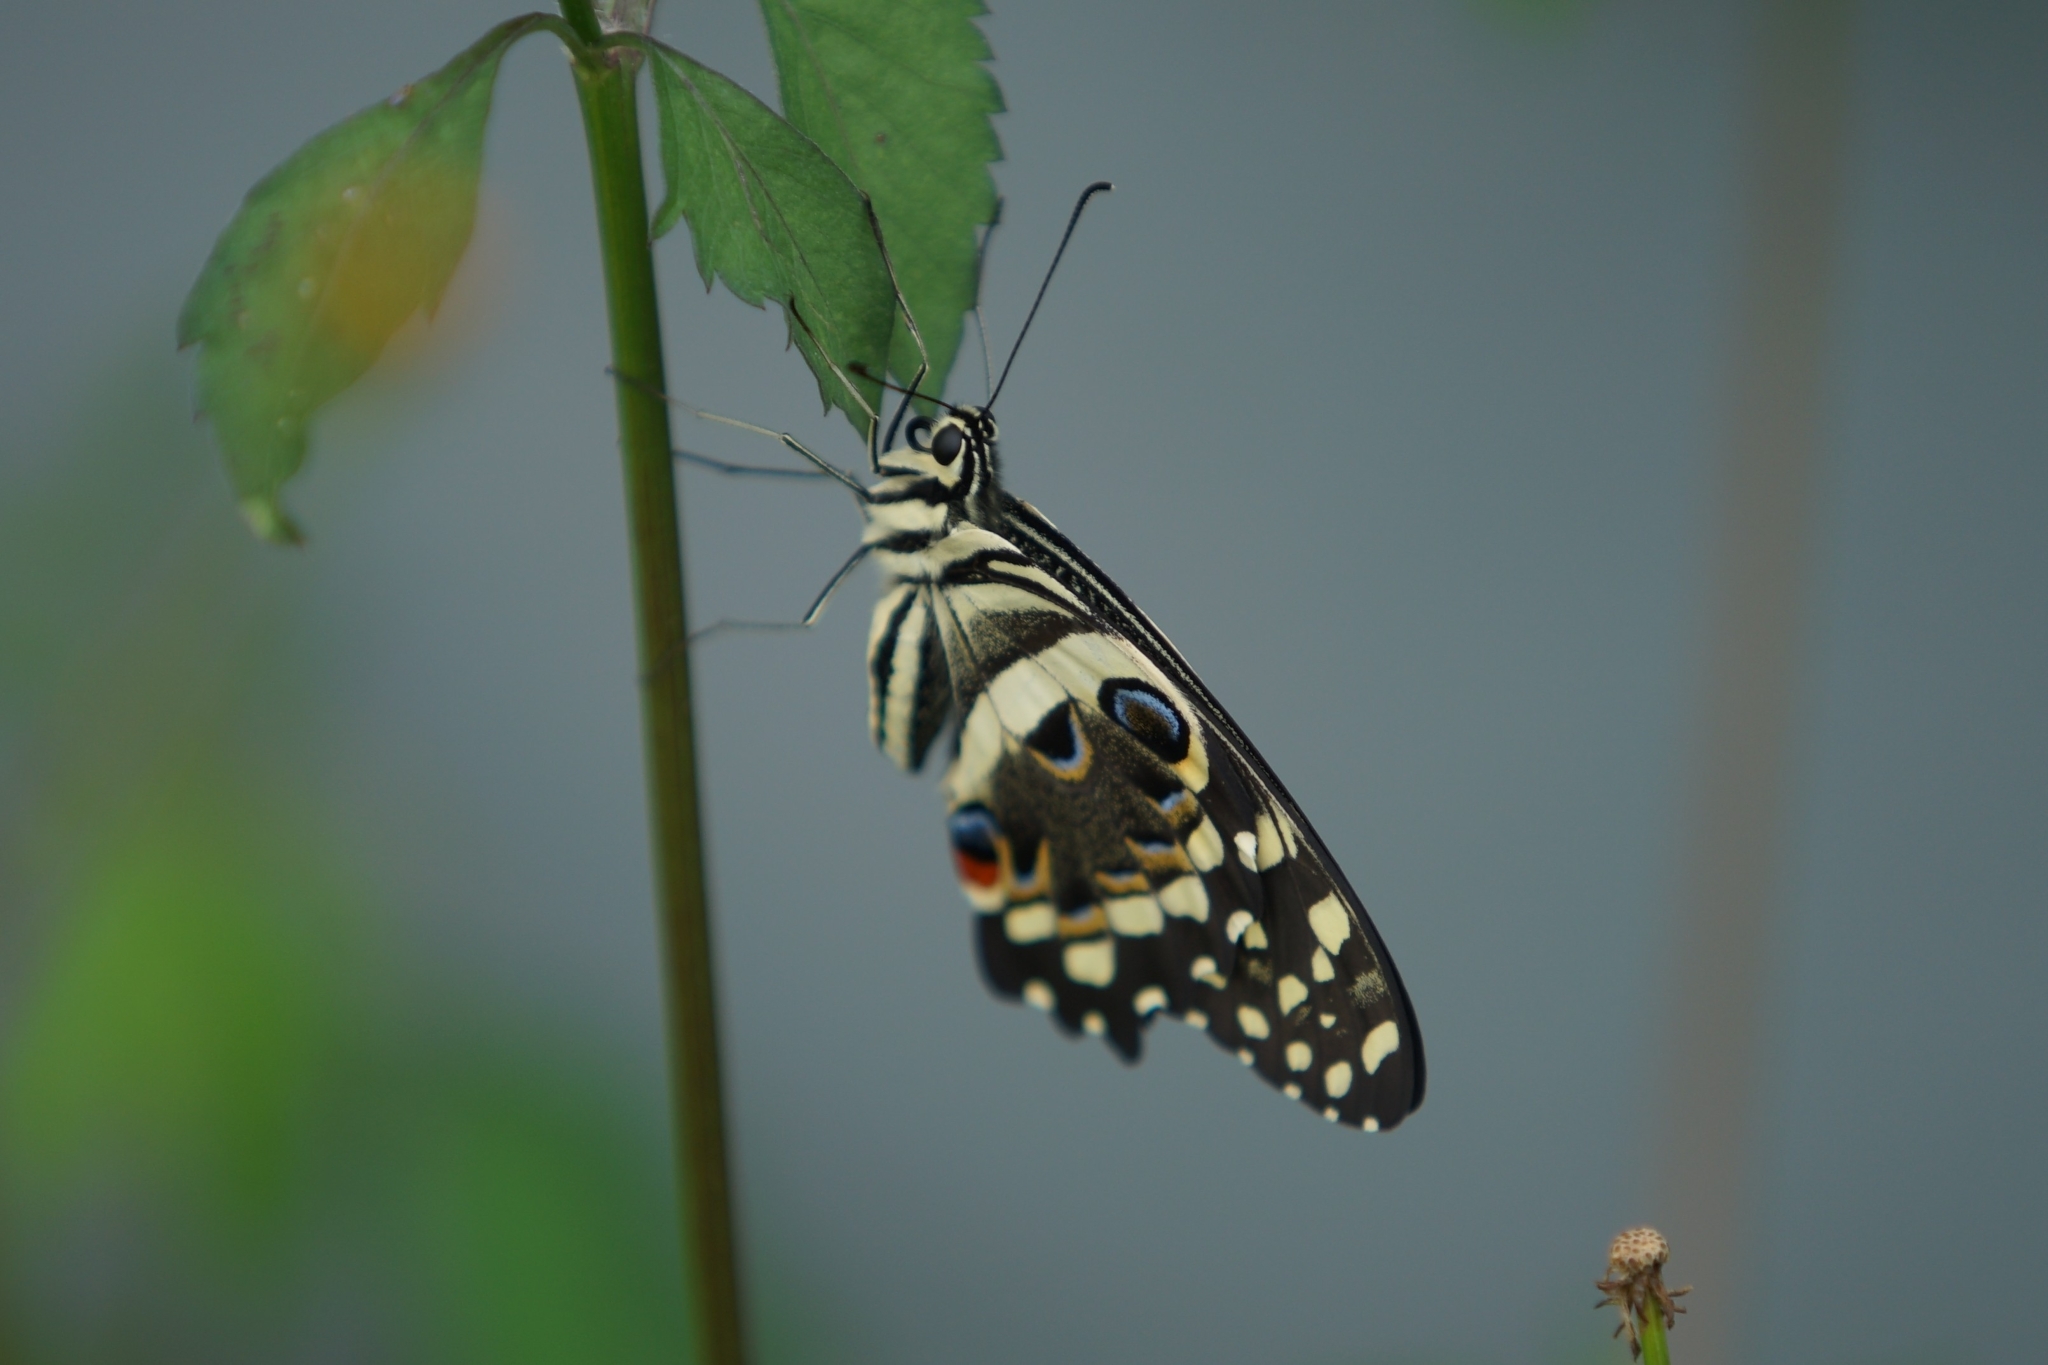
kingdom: Animalia
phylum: Arthropoda
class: Insecta
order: Lepidoptera
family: Papilionidae
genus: Papilio
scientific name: Papilio demodocus
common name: Christmas butterfly
